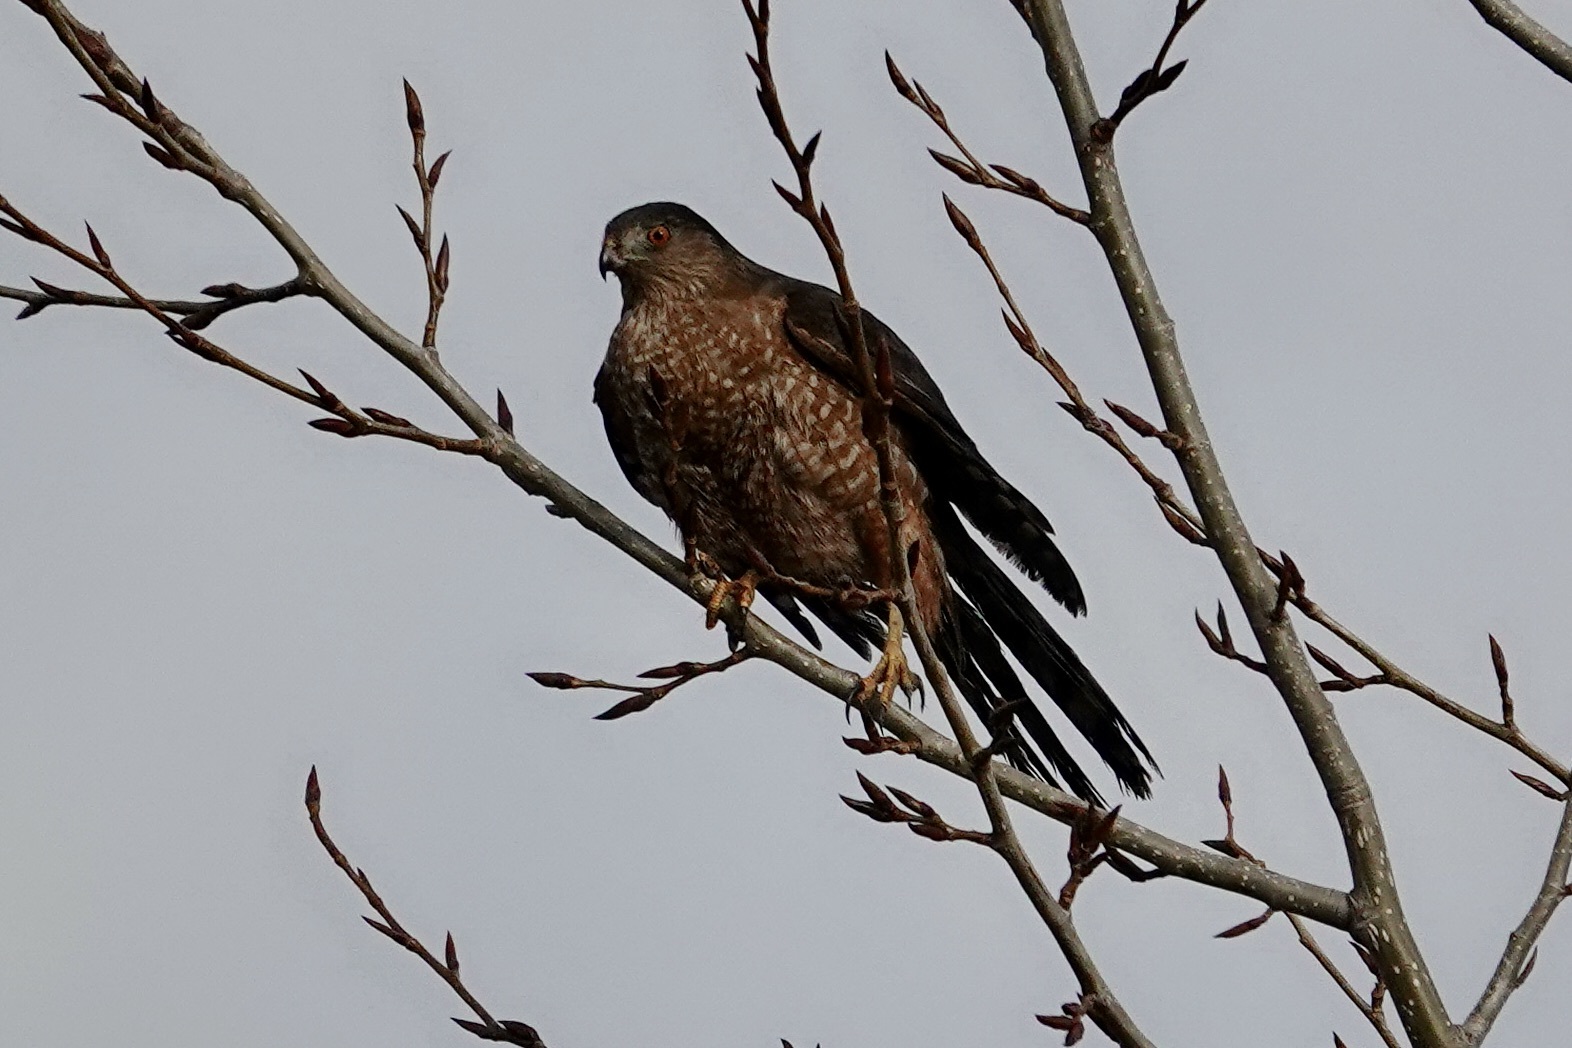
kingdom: Animalia
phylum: Chordata
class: Aves
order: Accipitriformes
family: Accipitridae
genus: Accipiter
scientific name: Accipiter striatus
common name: Sharp-shinned hawk
